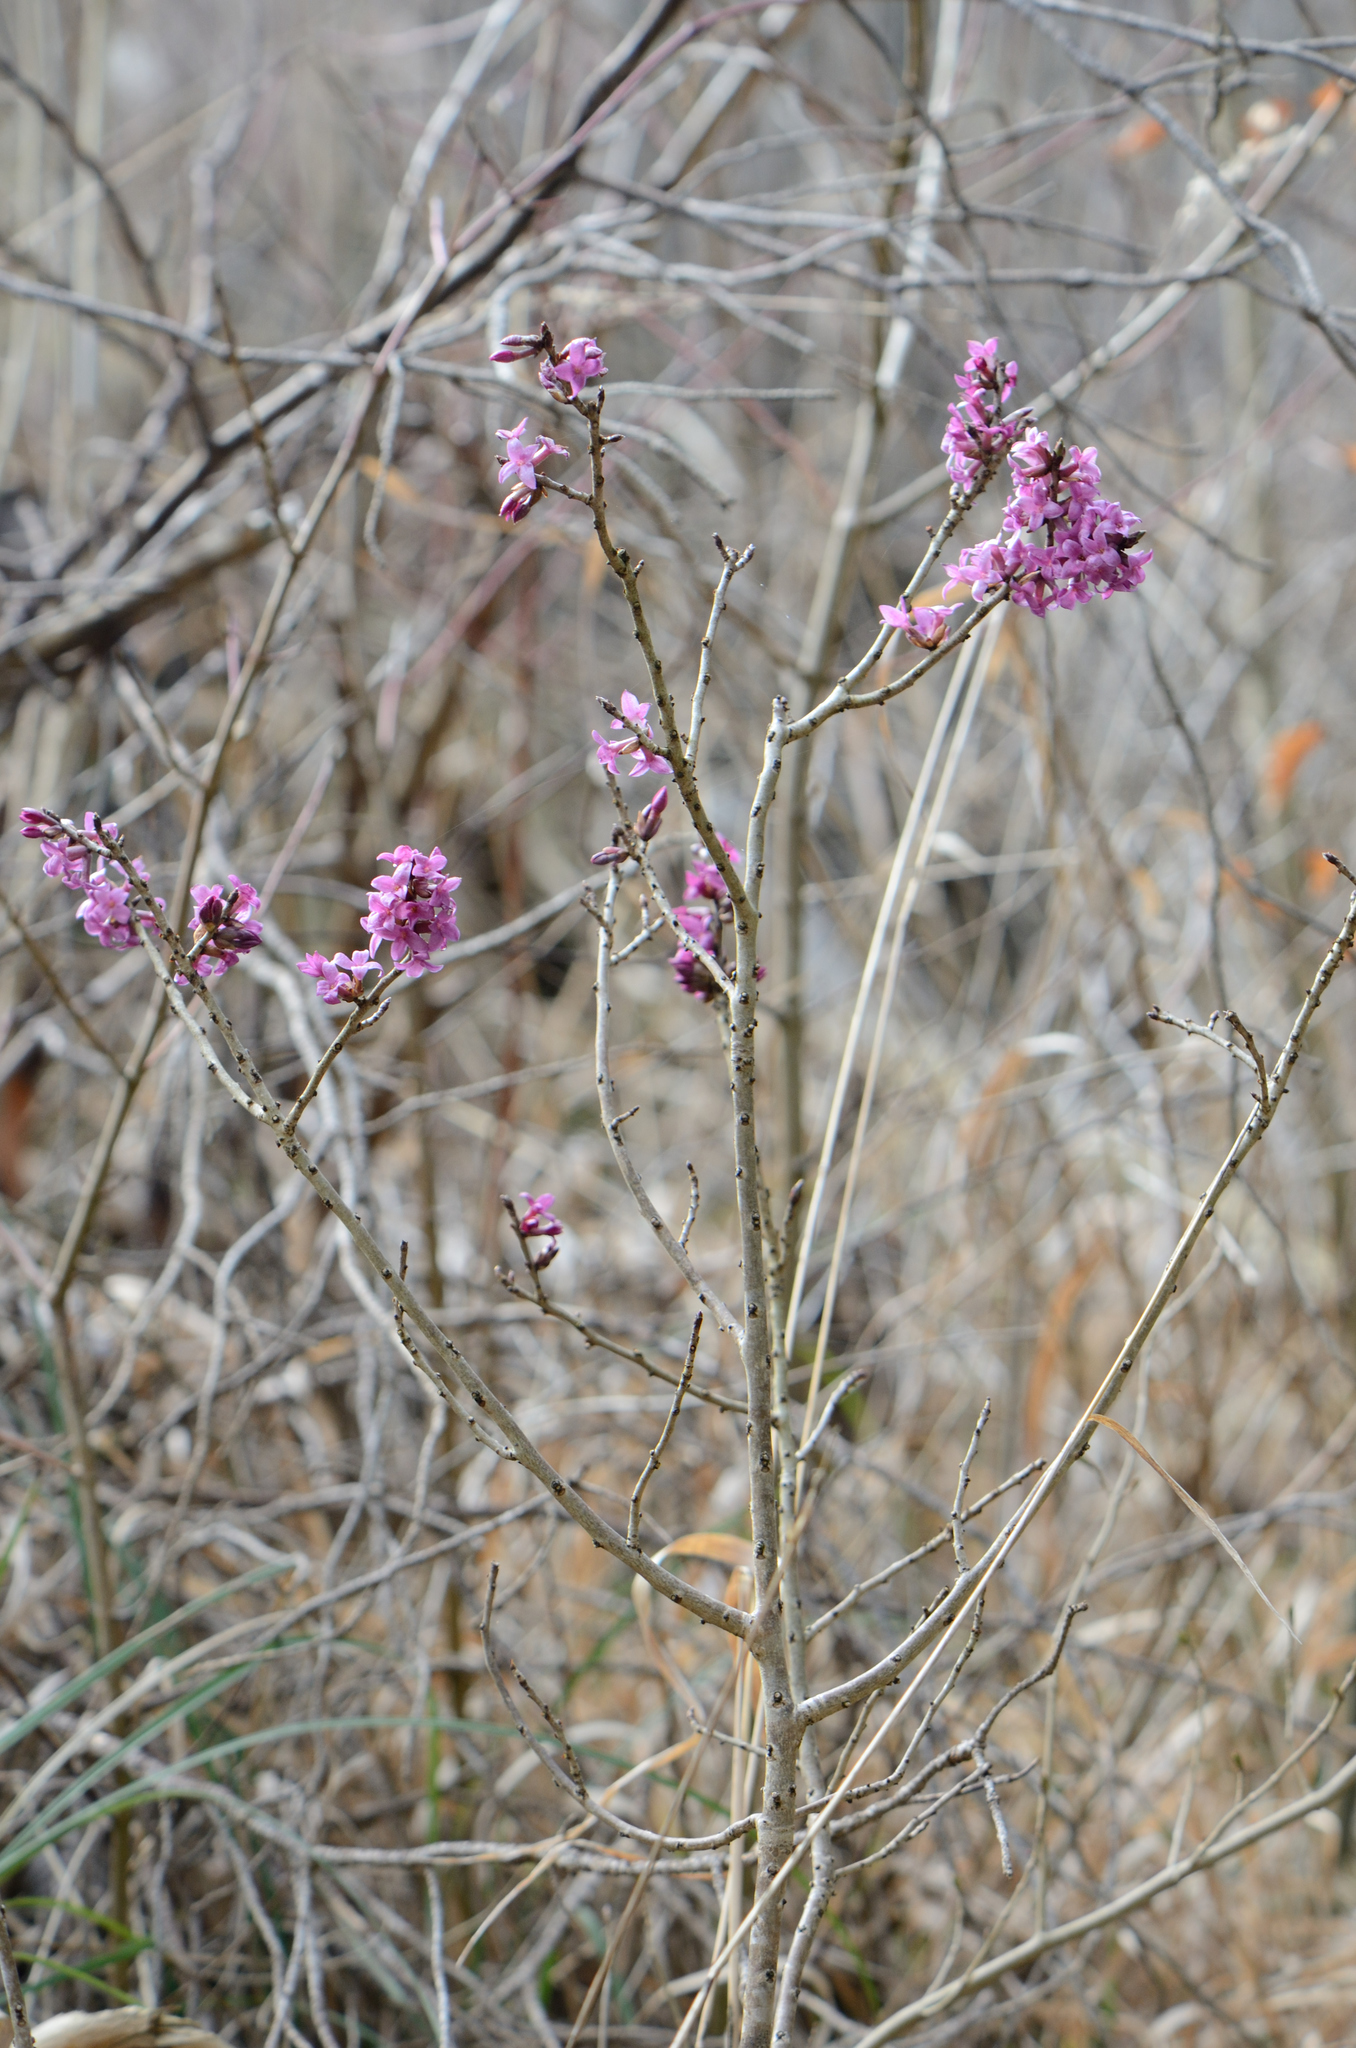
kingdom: Plantae
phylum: Tracheophyta
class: Magnoliopsida
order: Malvales
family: Thymelaeaceae
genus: Daphne
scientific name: Daphne mezereum
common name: Mezereon
